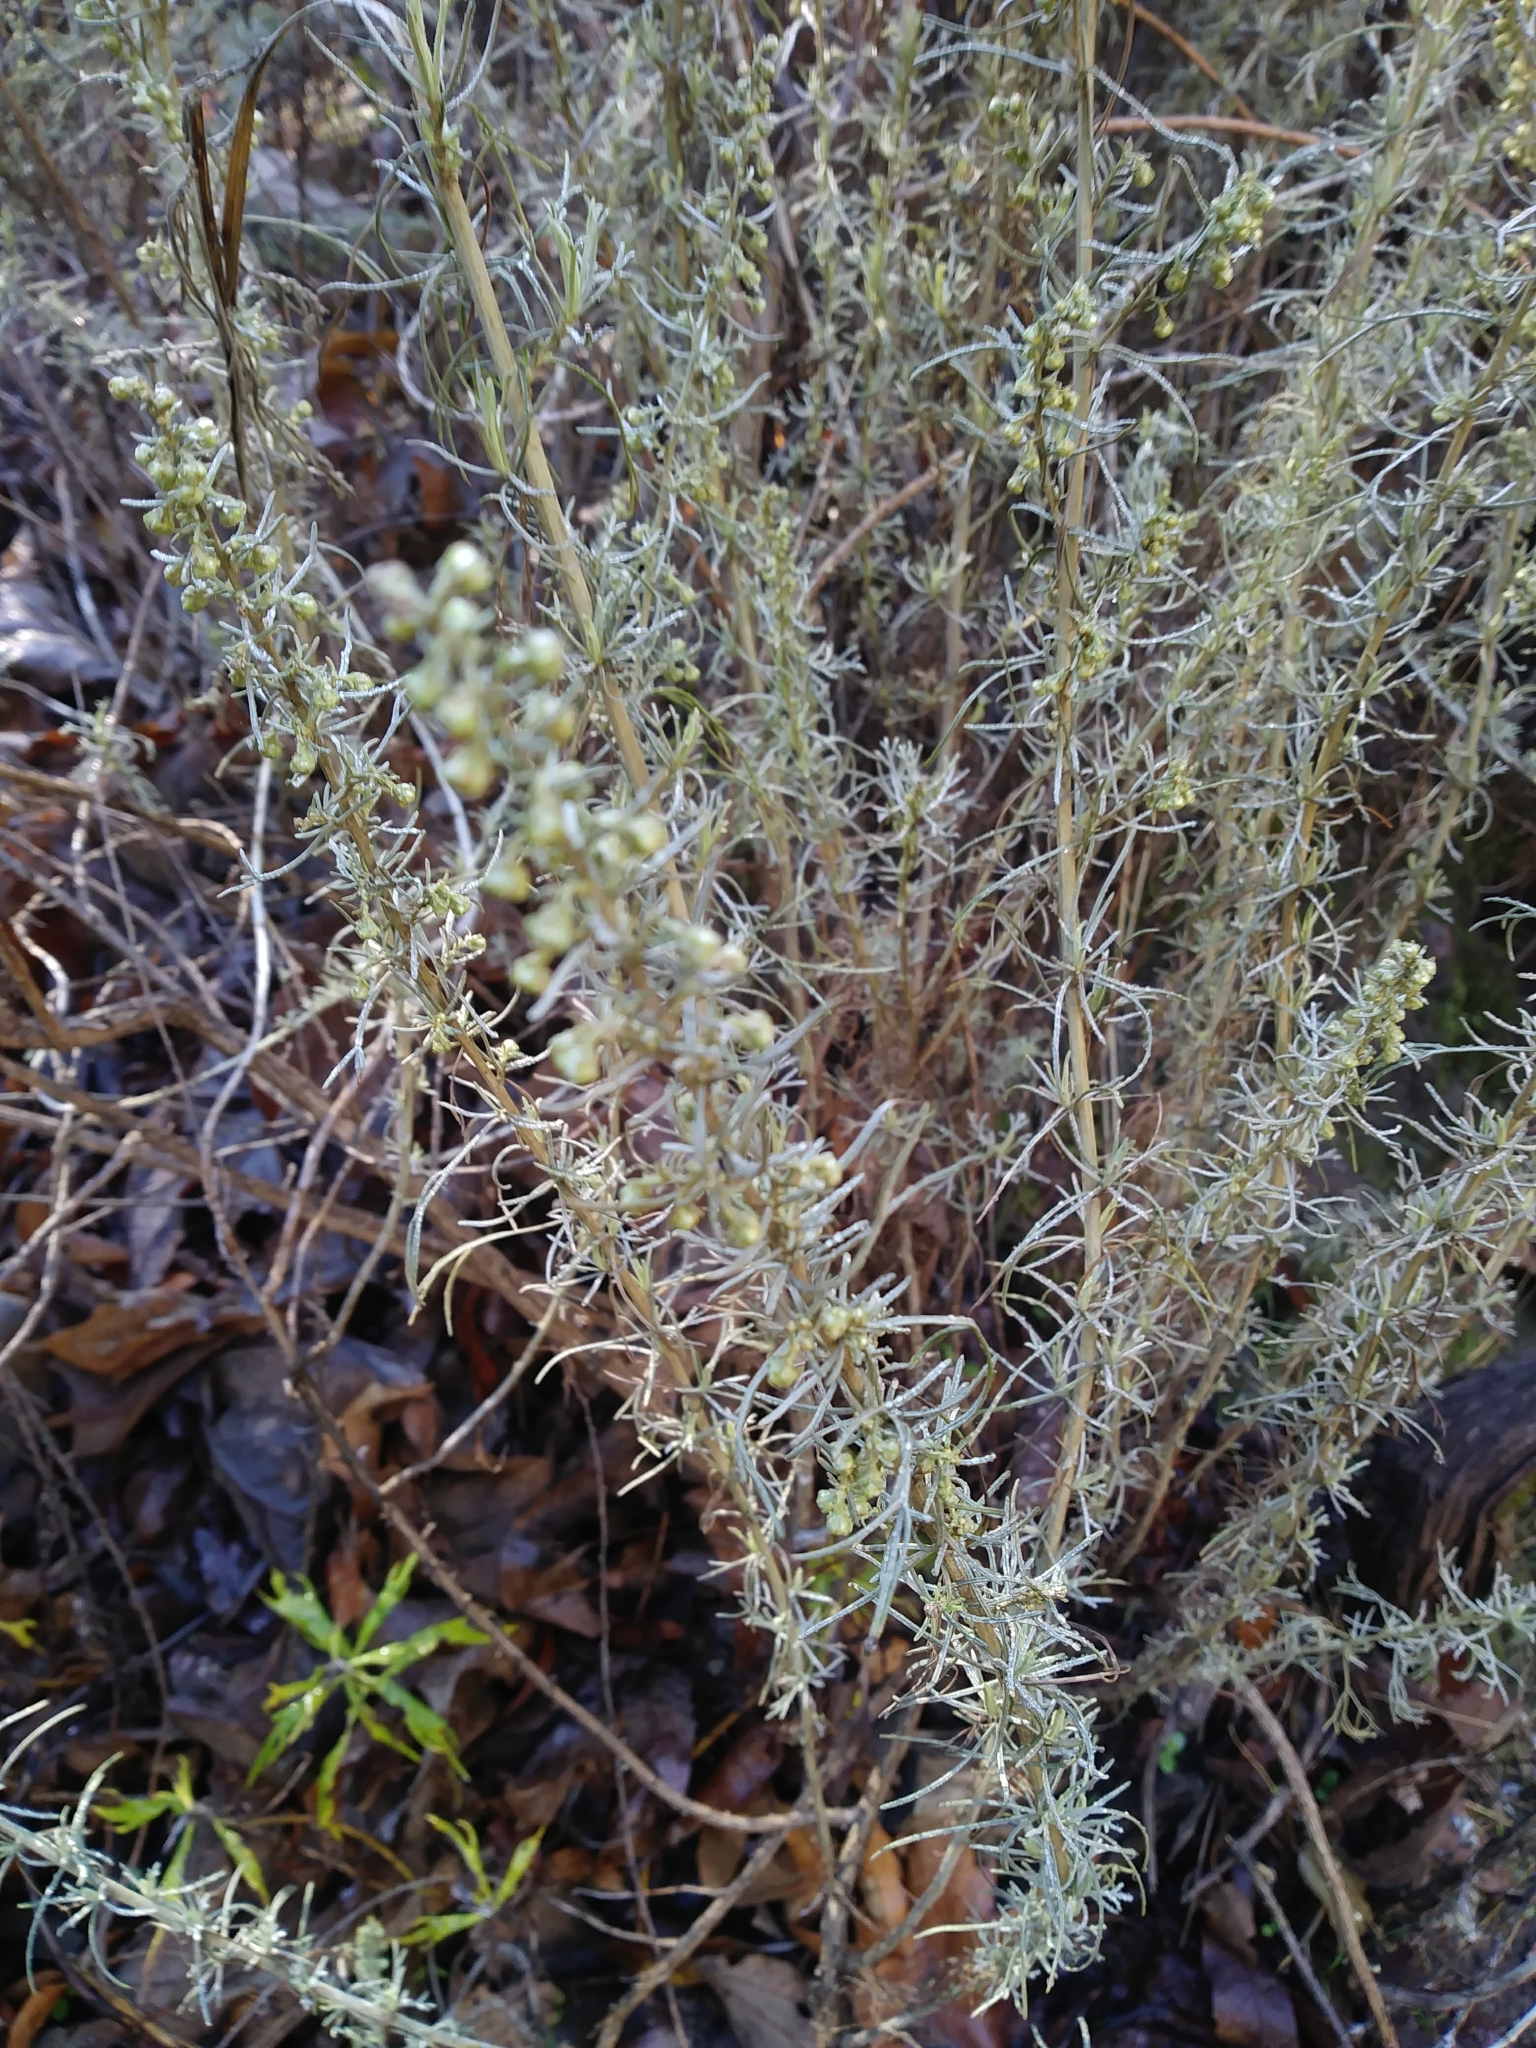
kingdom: Plantae
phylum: Tracheophyta
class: Magnoliopsida
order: Asterales
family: Asteraceae
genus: Artemisia
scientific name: Artemisia californica
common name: California sagebrush
